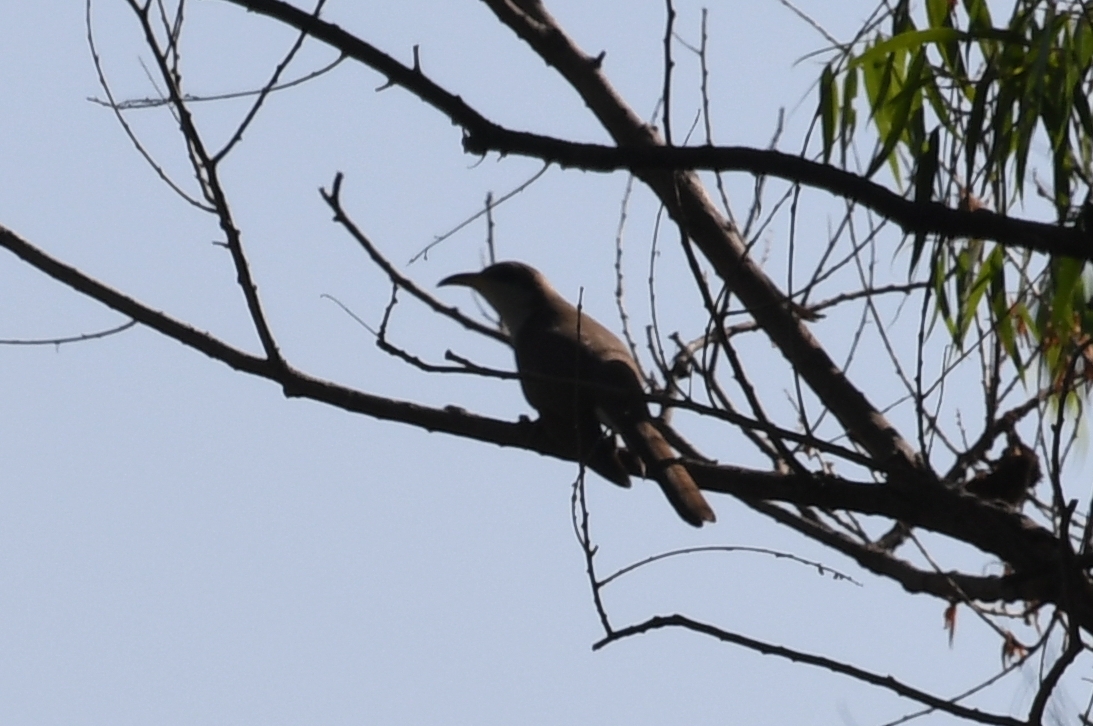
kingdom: Animalia
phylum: Chordata
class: Aves
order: Cuculiformes
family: Cuculidae
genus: Coccyzus
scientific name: Coccyzus americanus
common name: Yellow-billed cuckoo
